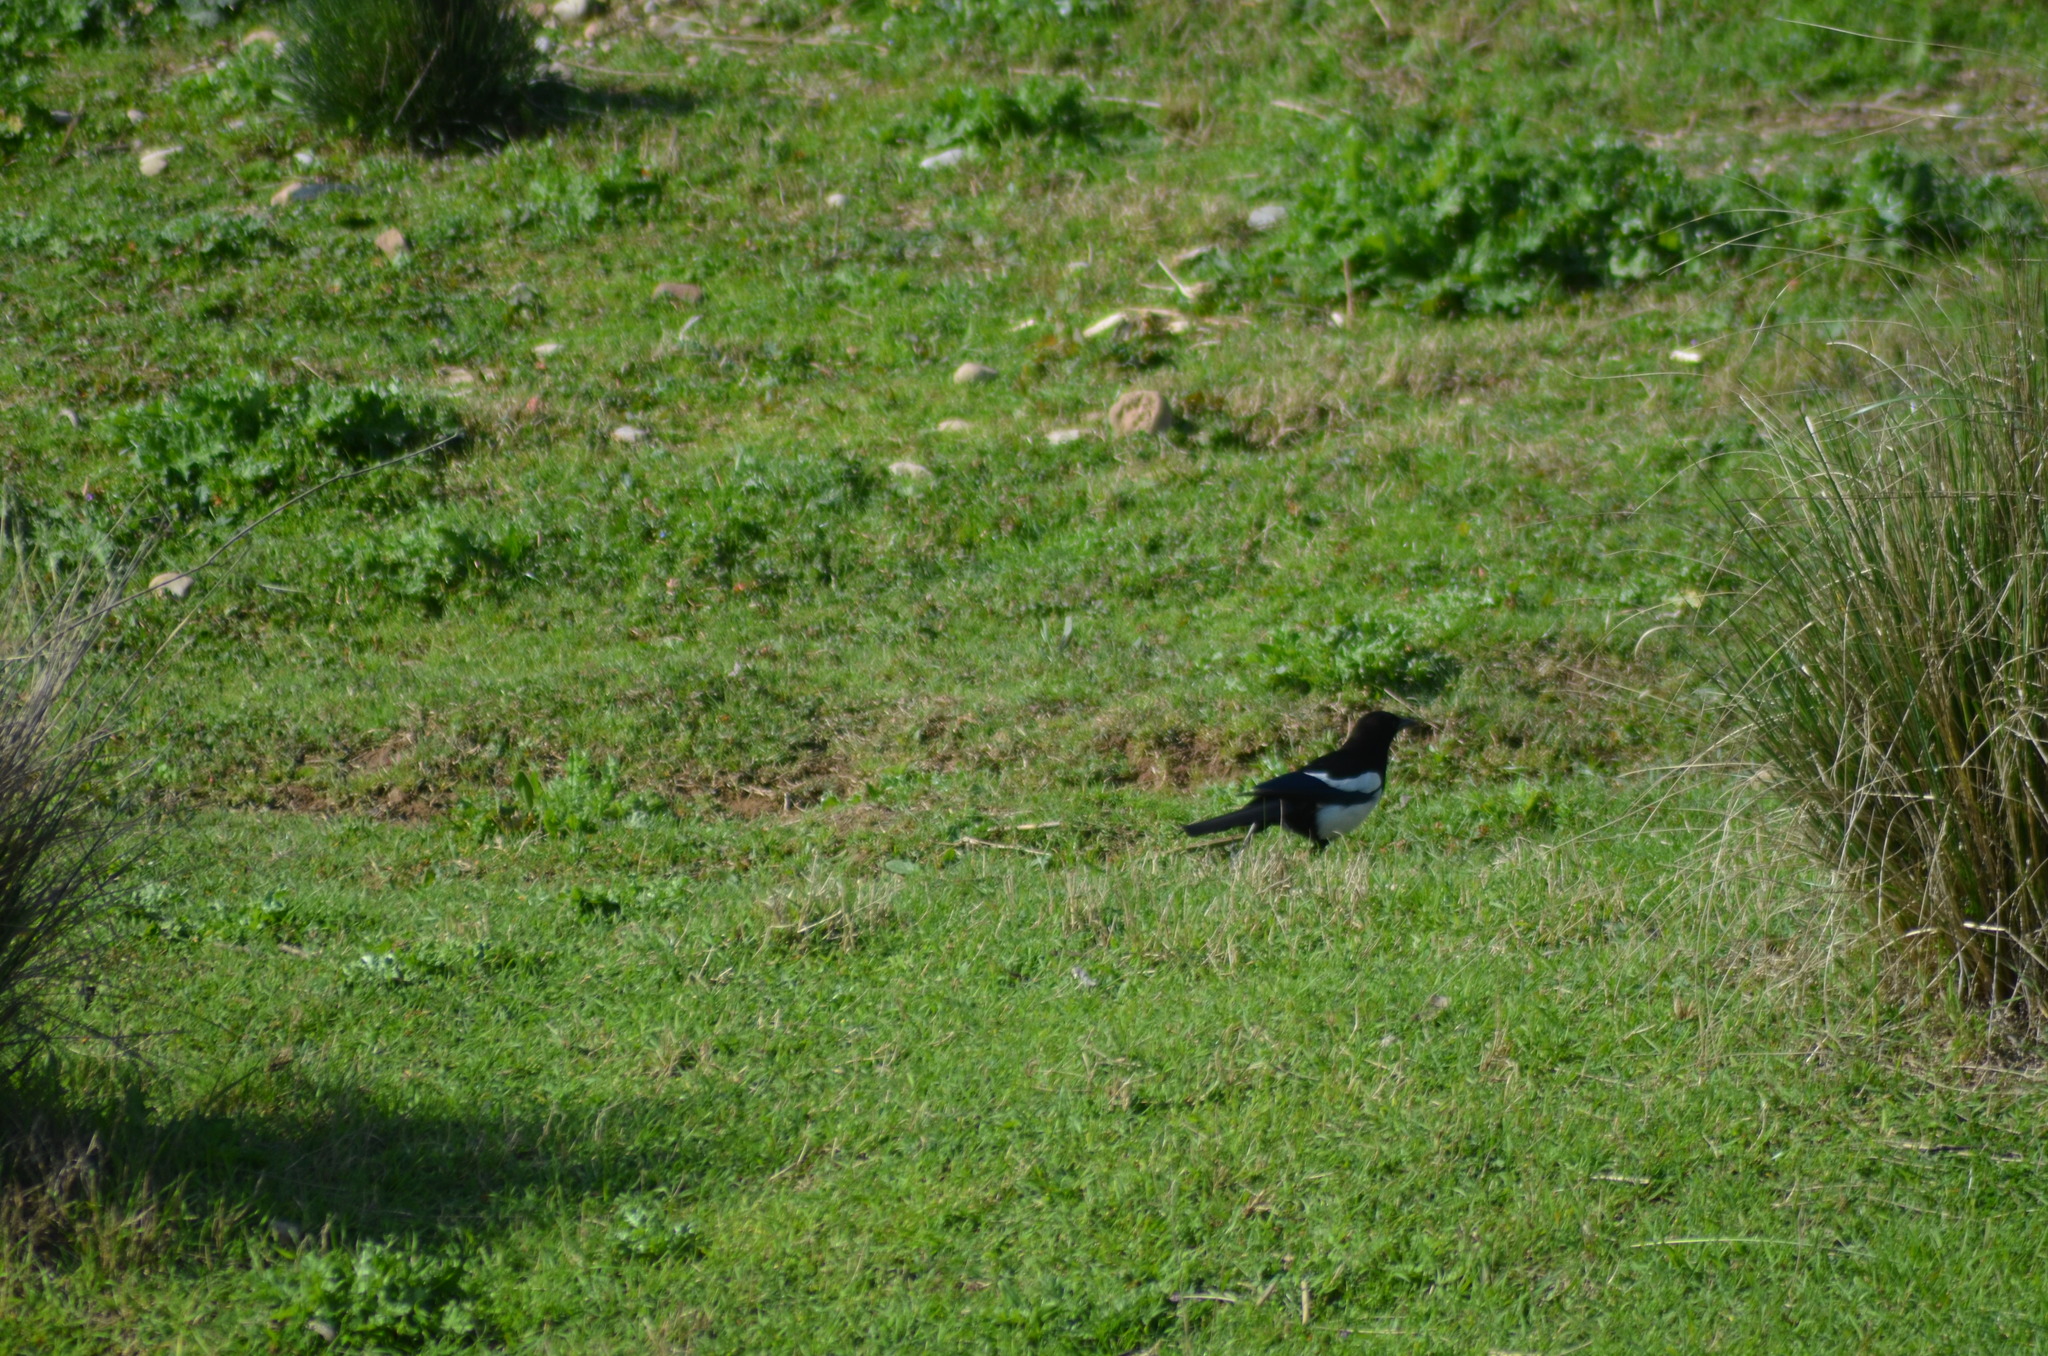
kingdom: Animalia
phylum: Chordata
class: Aves
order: Passeriformes
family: Corvidae
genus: Pica
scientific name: Pica pica
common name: Eurasian magpie
